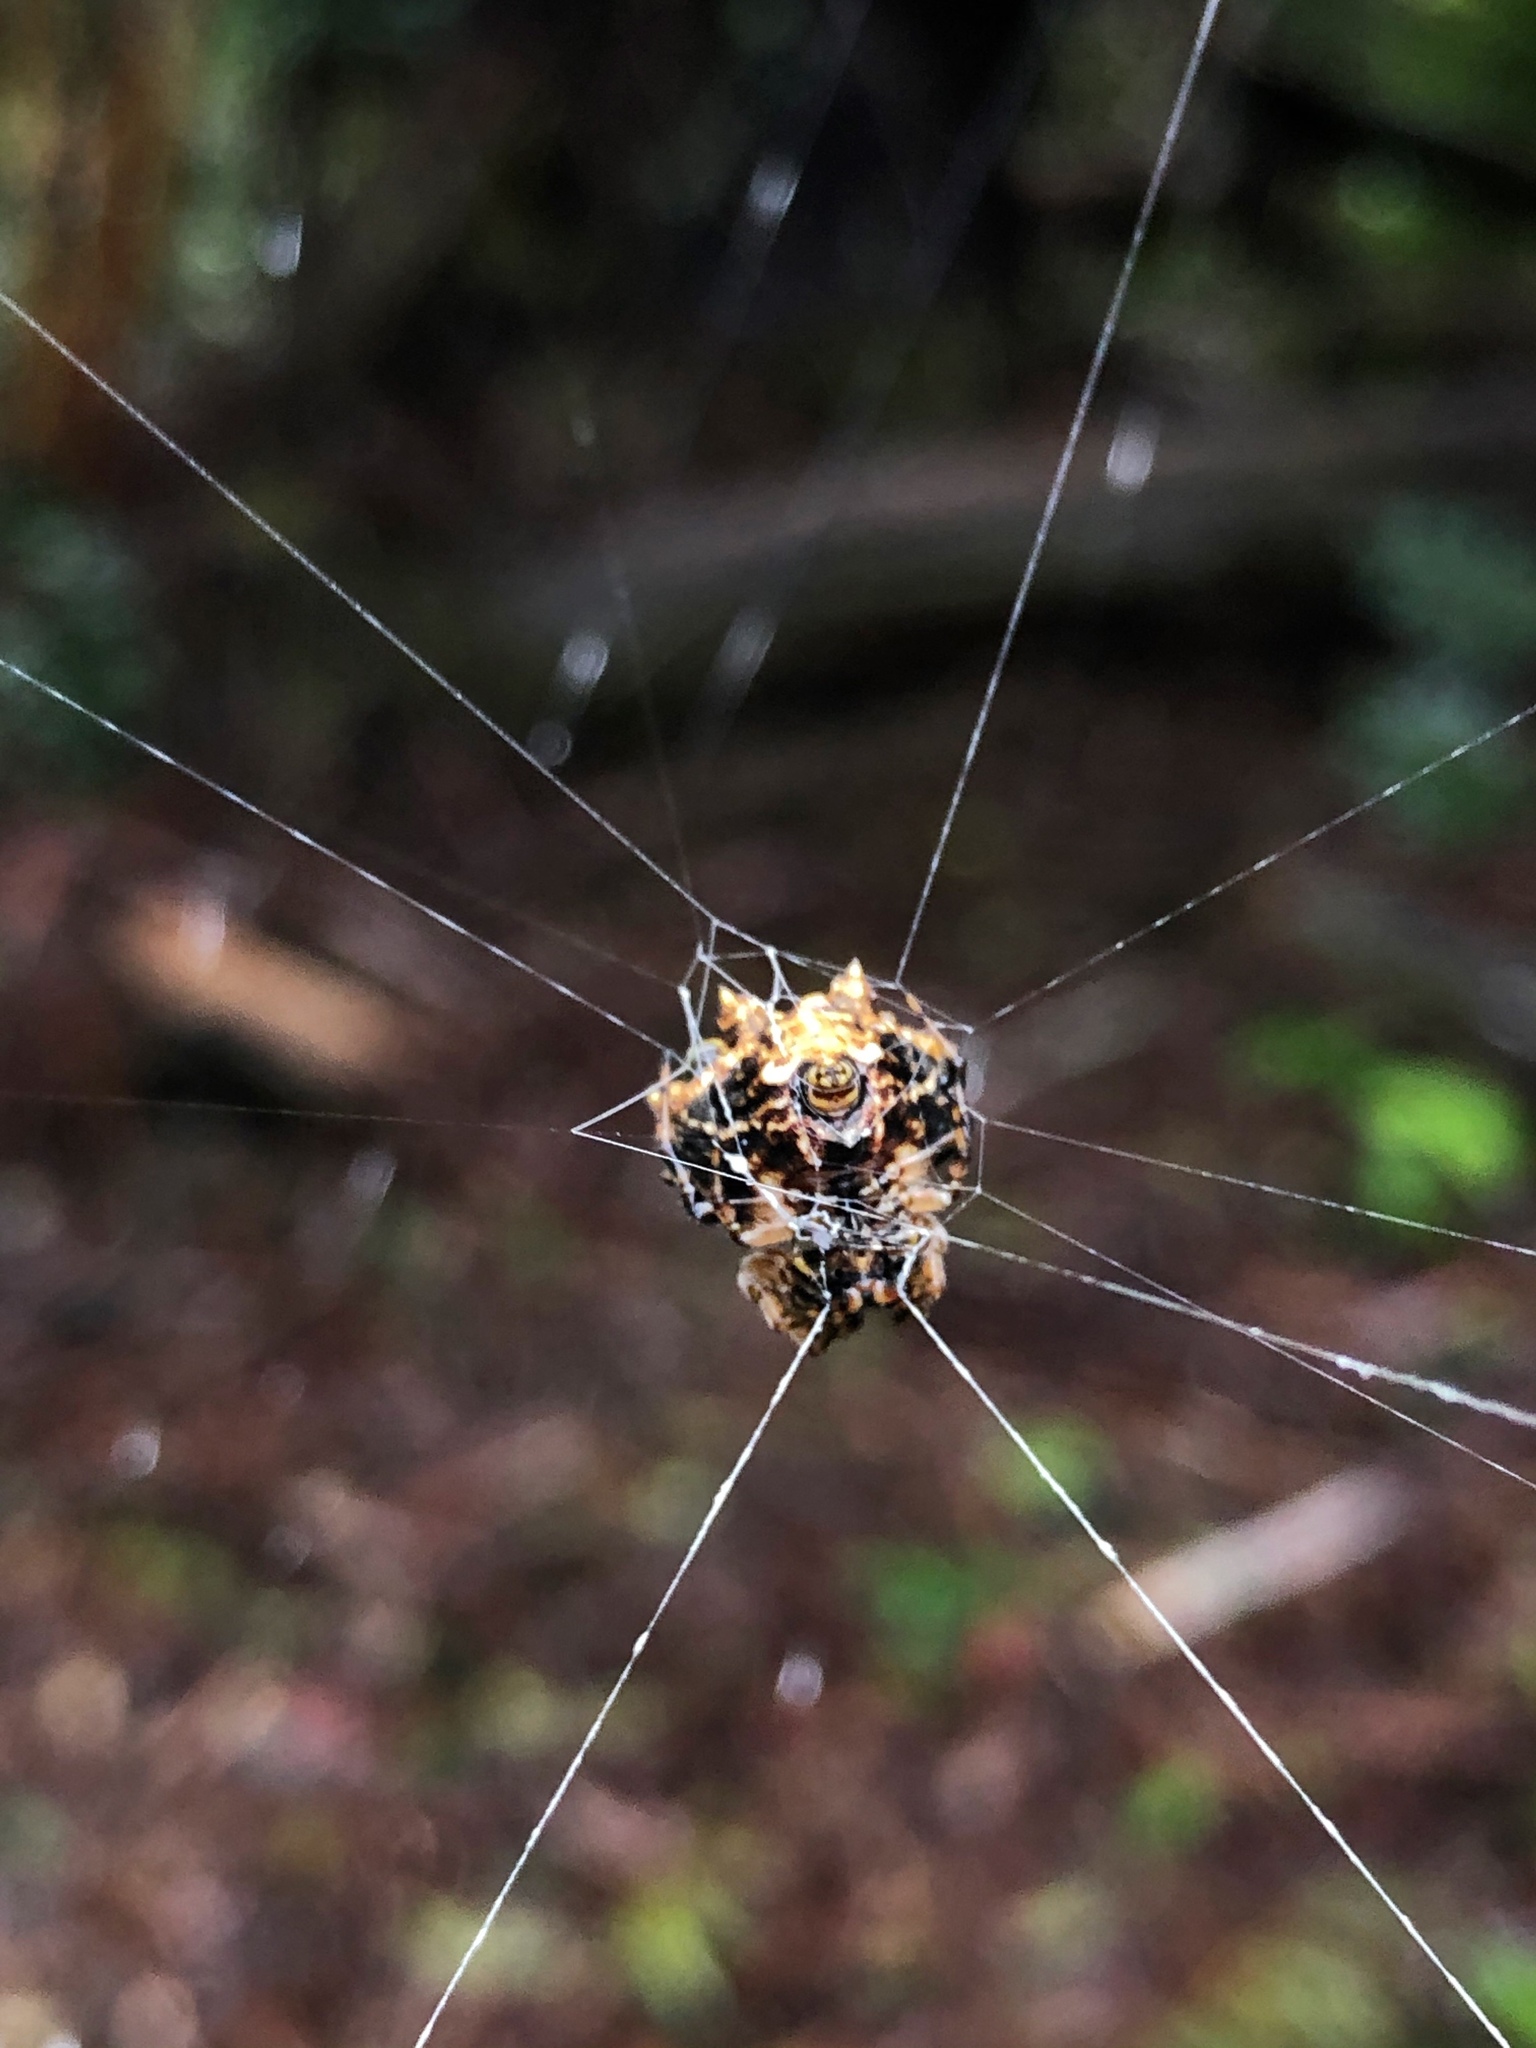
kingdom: Animalia
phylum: Arthropoda
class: Arachnida
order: Araneae
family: Araneidae
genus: Thelacantha
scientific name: Thelacantha brevispina
